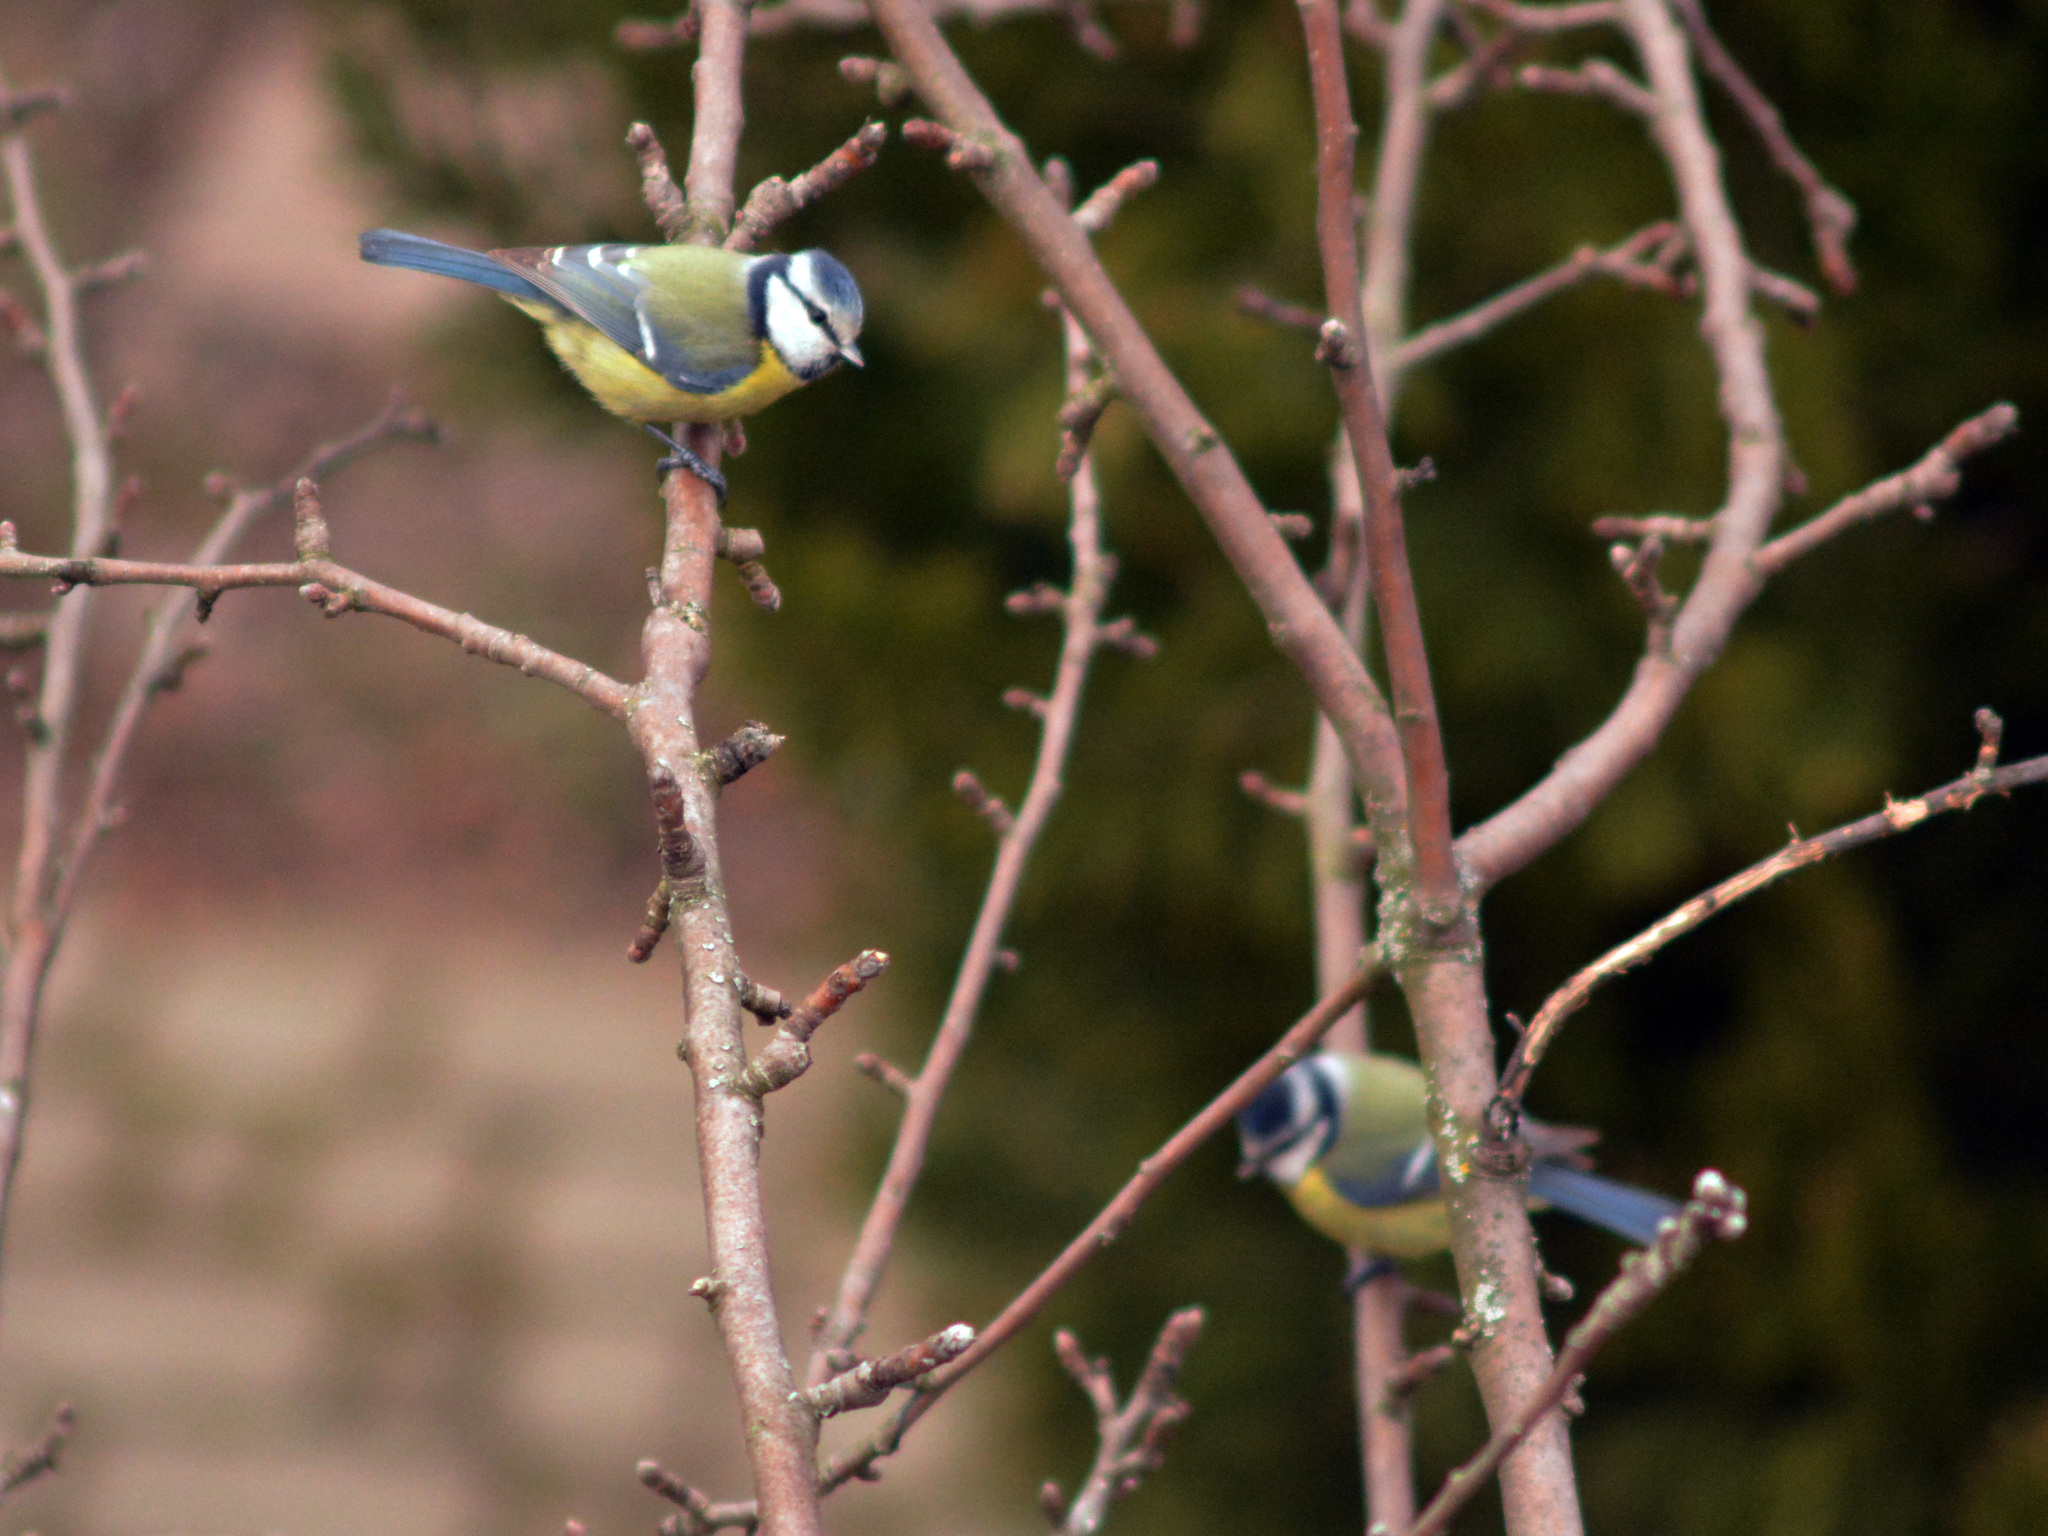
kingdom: Animalia
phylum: Chordata
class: Aves
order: Passeriformes
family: Paridae
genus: Cyanistes
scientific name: Cyanistes caeruleus
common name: Eurasian blue tit
